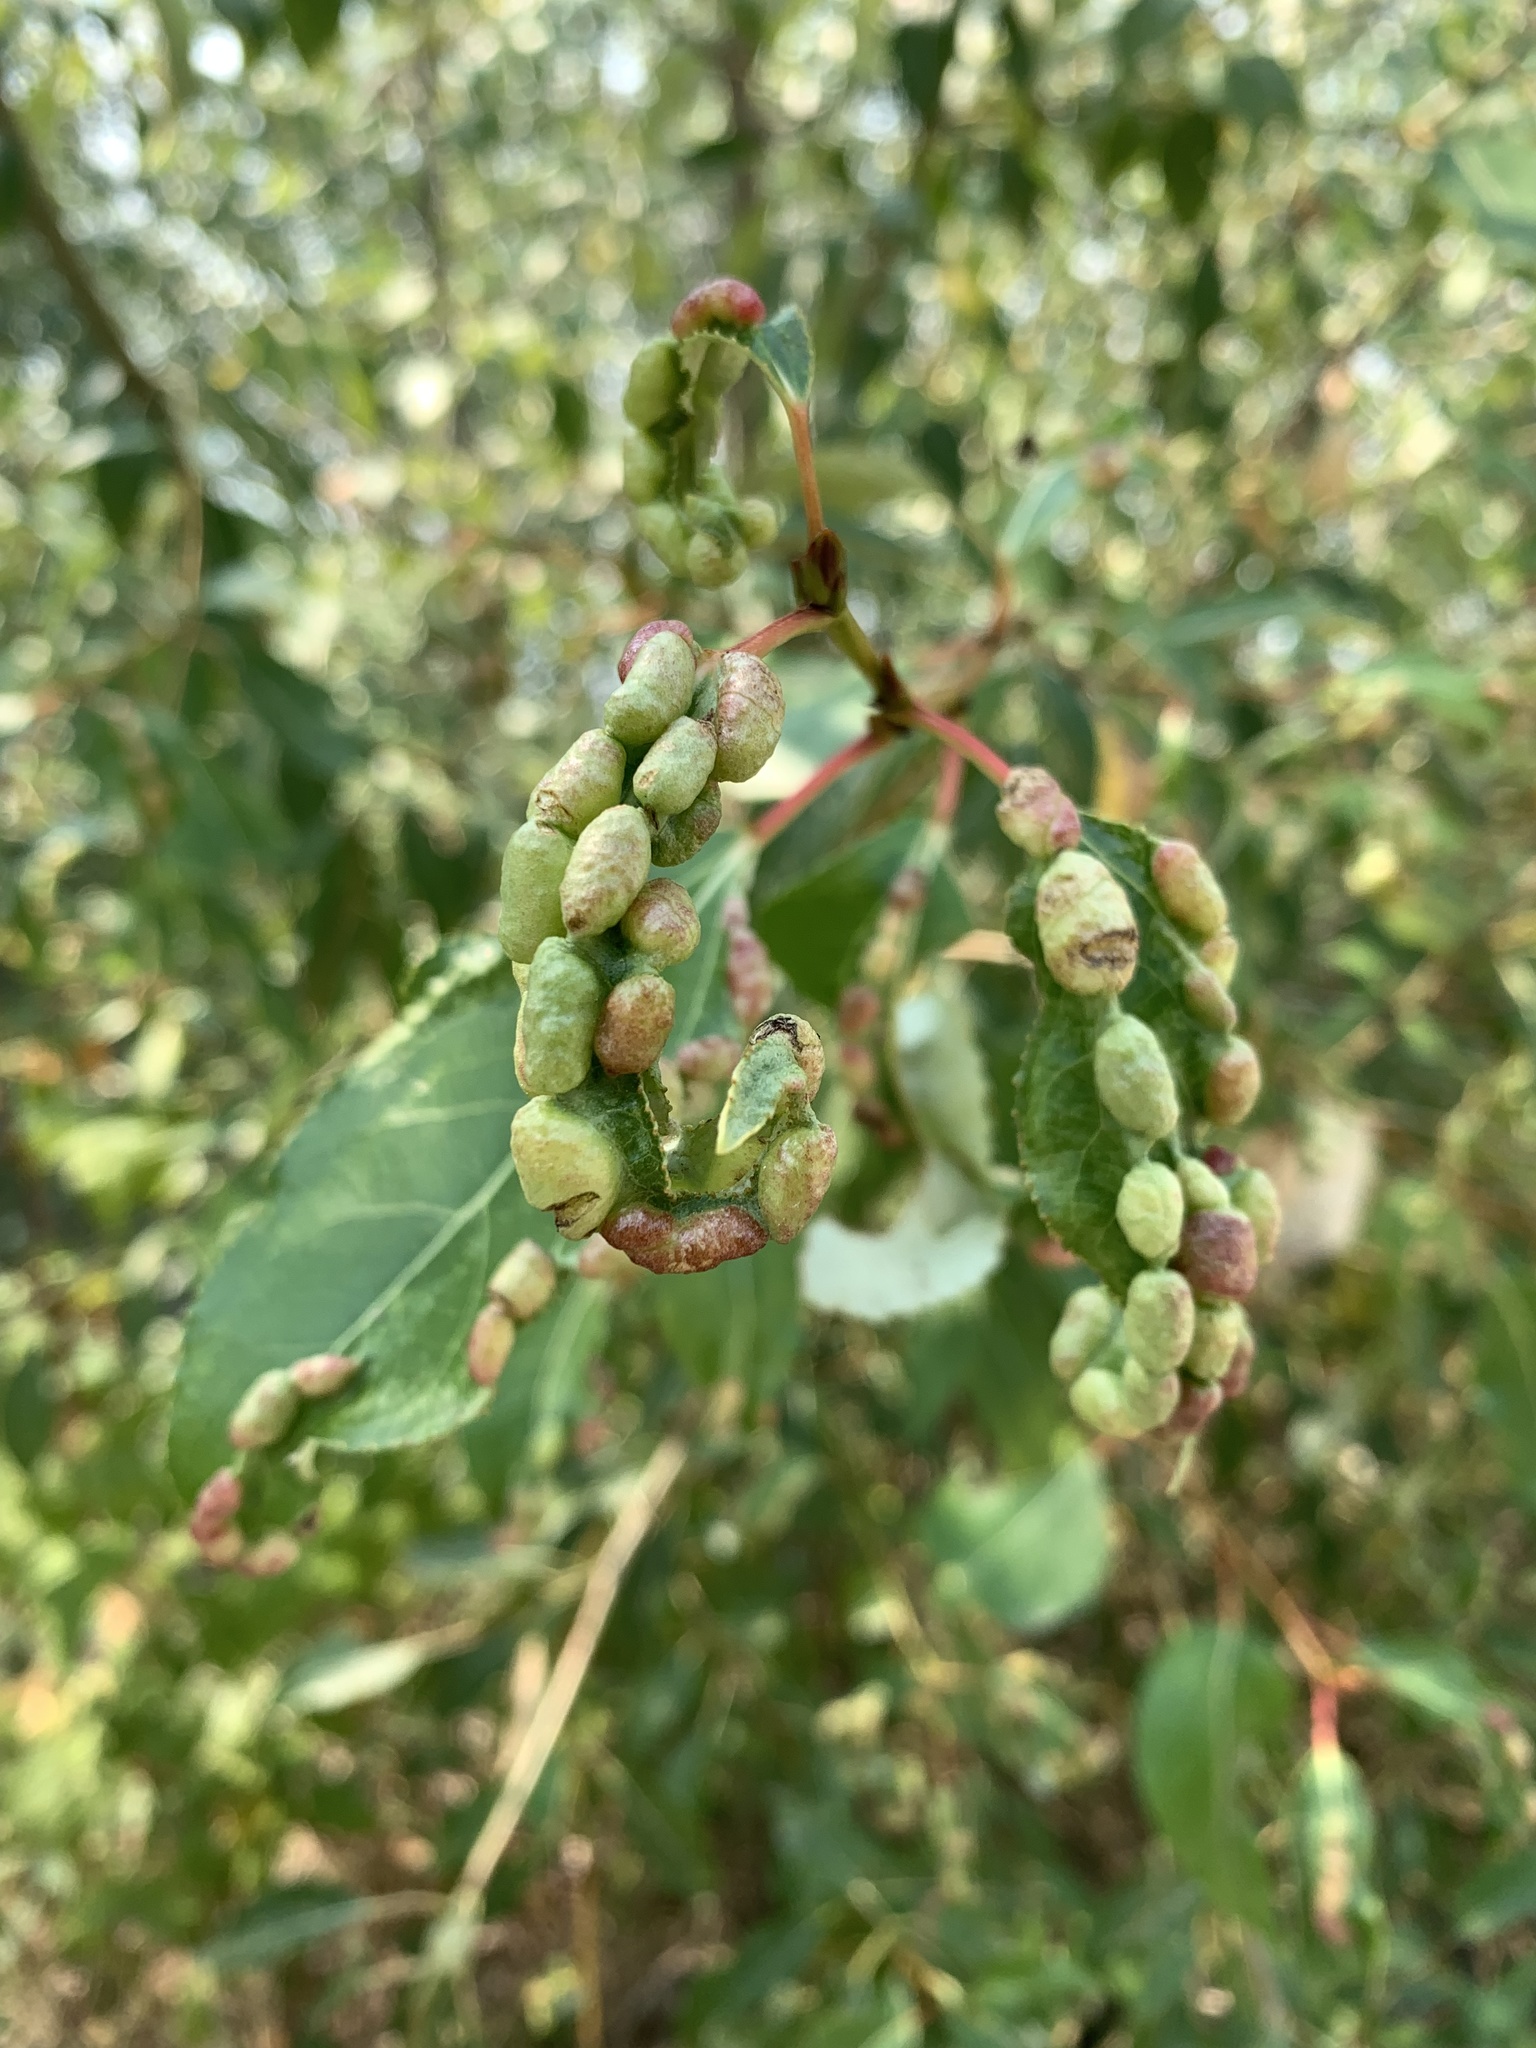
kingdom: Animalia
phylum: Arthropoda
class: Insecta
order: Hemiptera
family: Aphididae
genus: Thecabius
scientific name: Thecabius populimonilis
